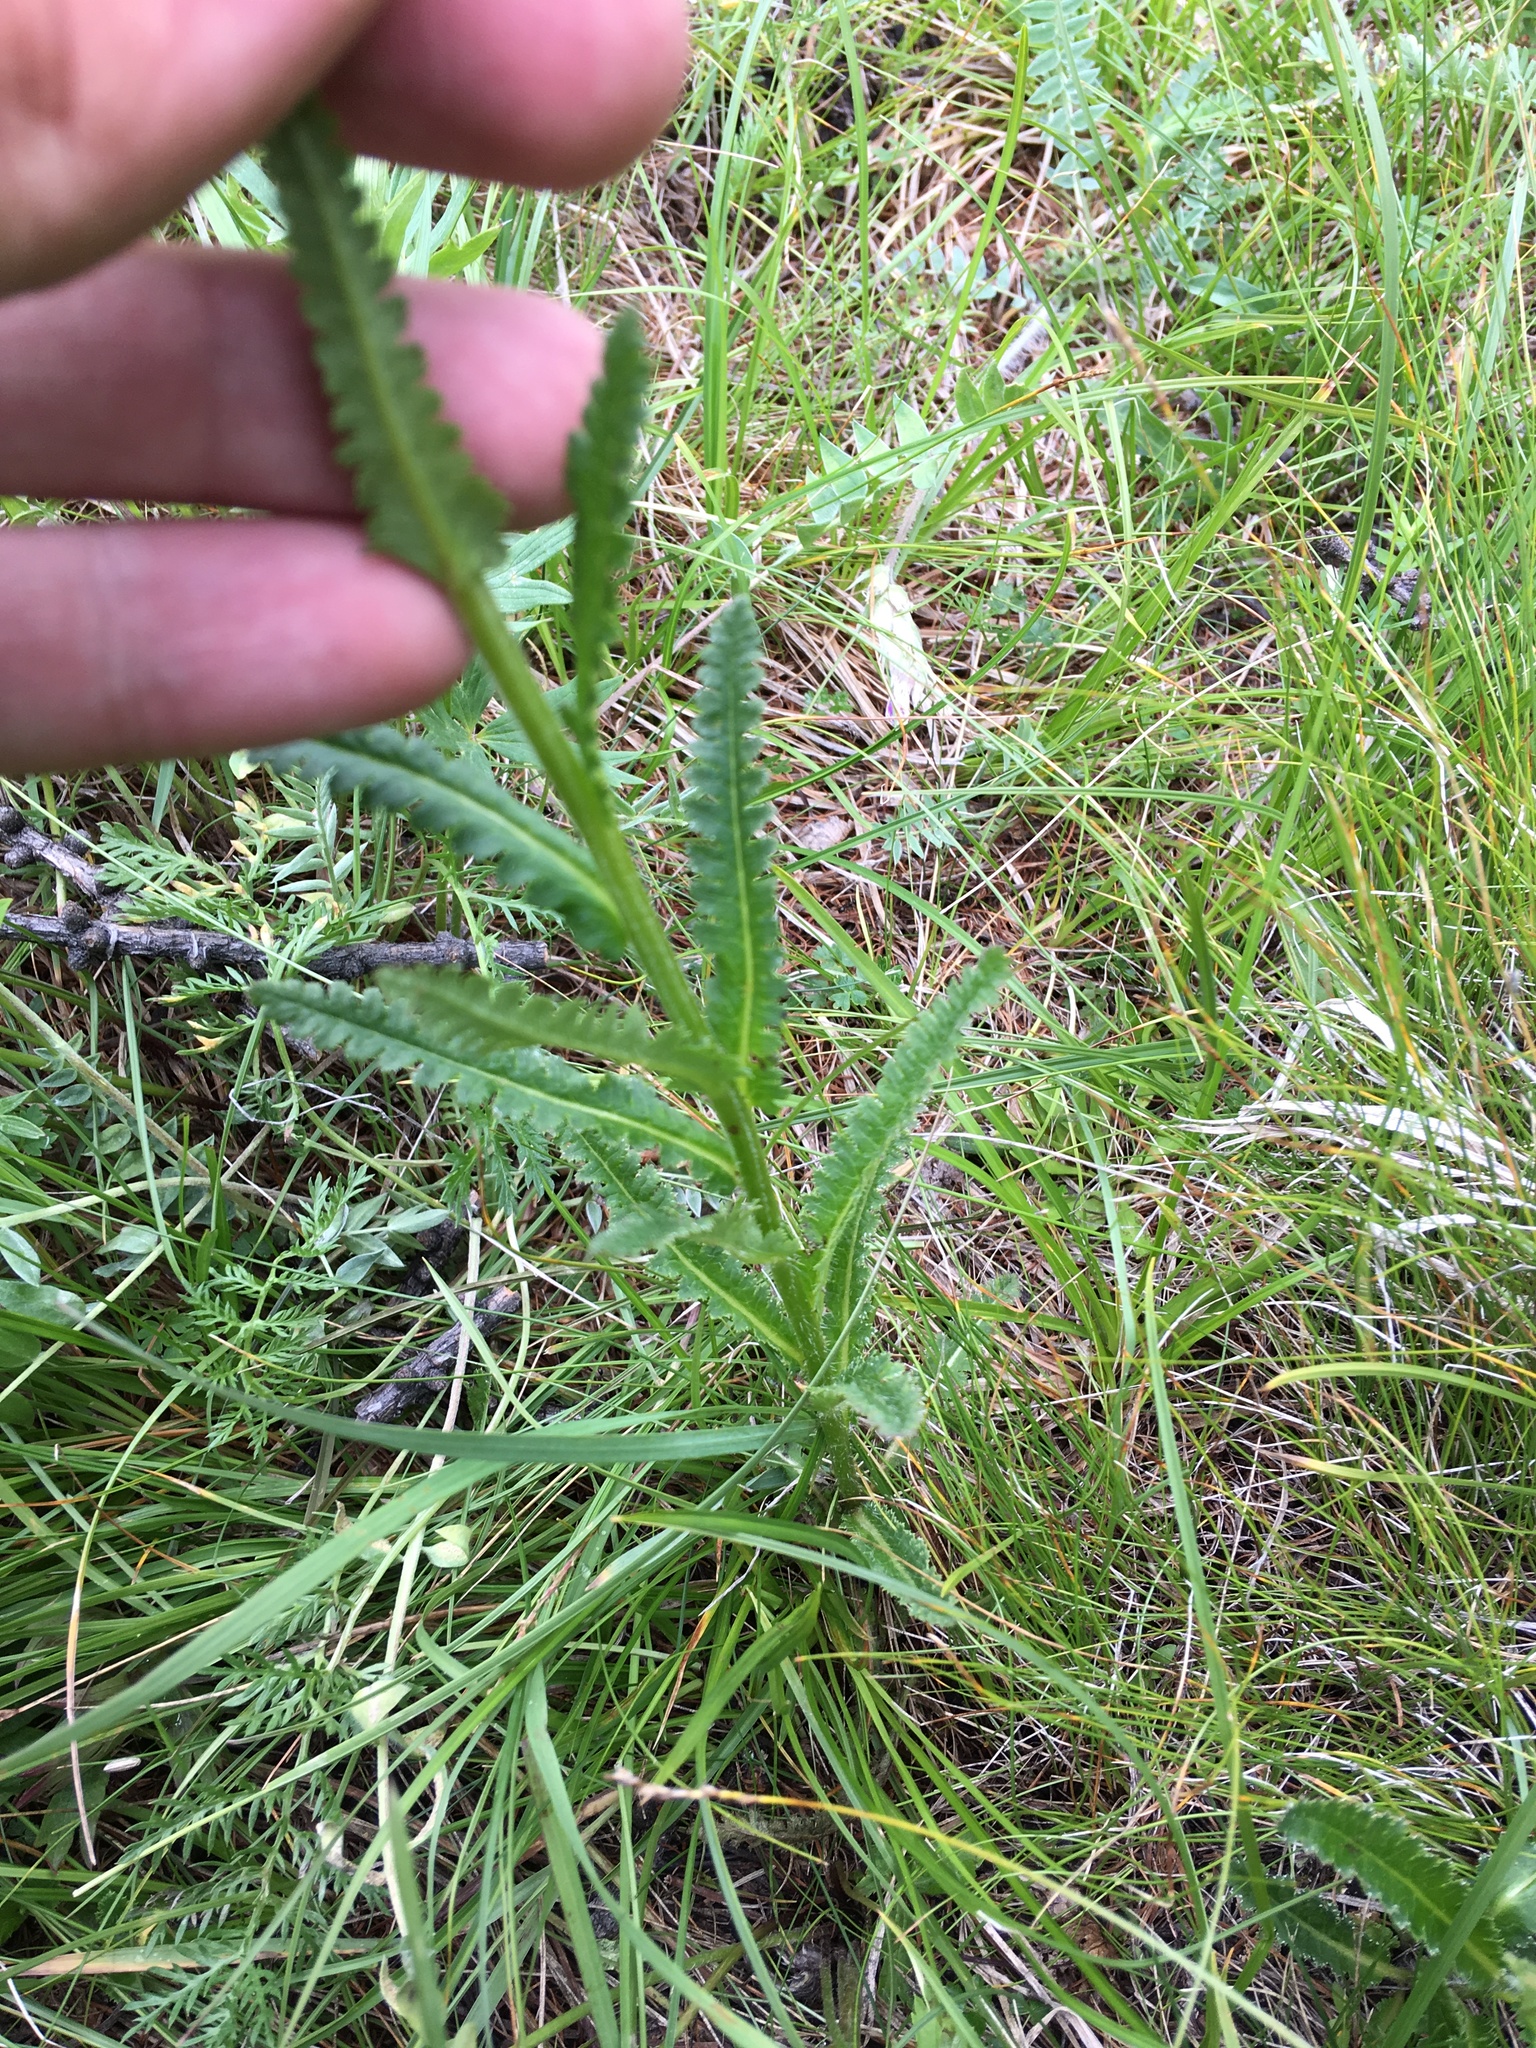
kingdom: Plantae
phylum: Tracheophyta
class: Magnoliopsida
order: Lamiales
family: Orobanchaceae
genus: Pedicularis
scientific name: Pedicularis tristis
